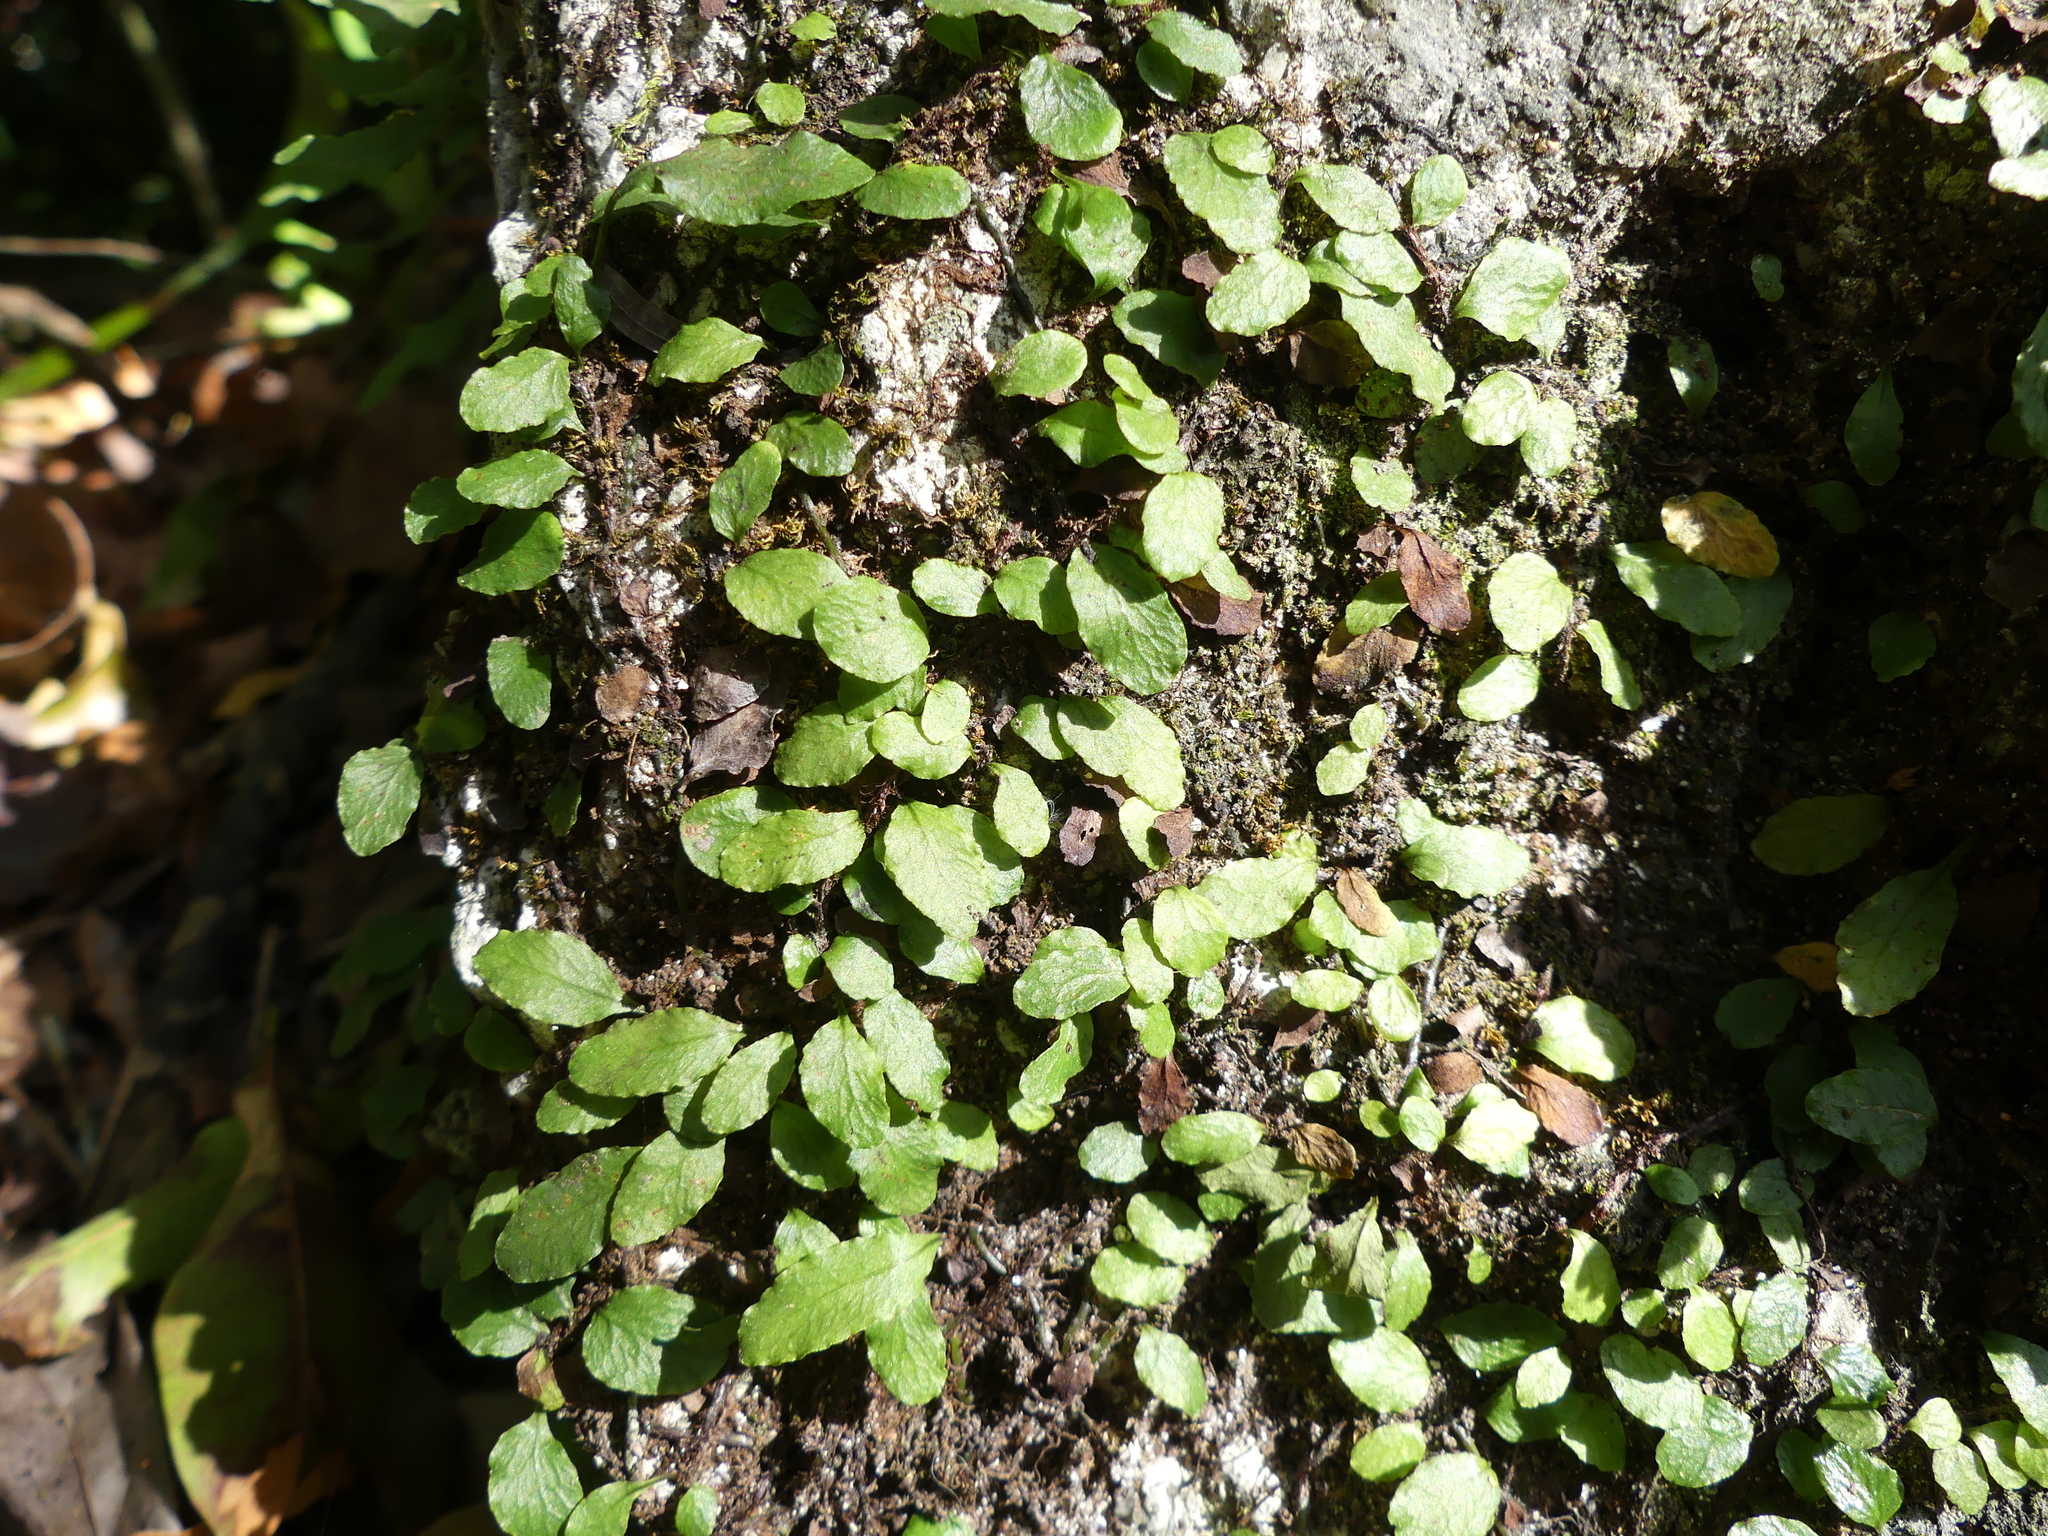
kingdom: Plantae
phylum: Tracheophyta
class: Polypodiopsida
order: Polypodiales
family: Polypodiaceae
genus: Microgramma
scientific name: Microgramma heterophylla
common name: Clinging snakefern
